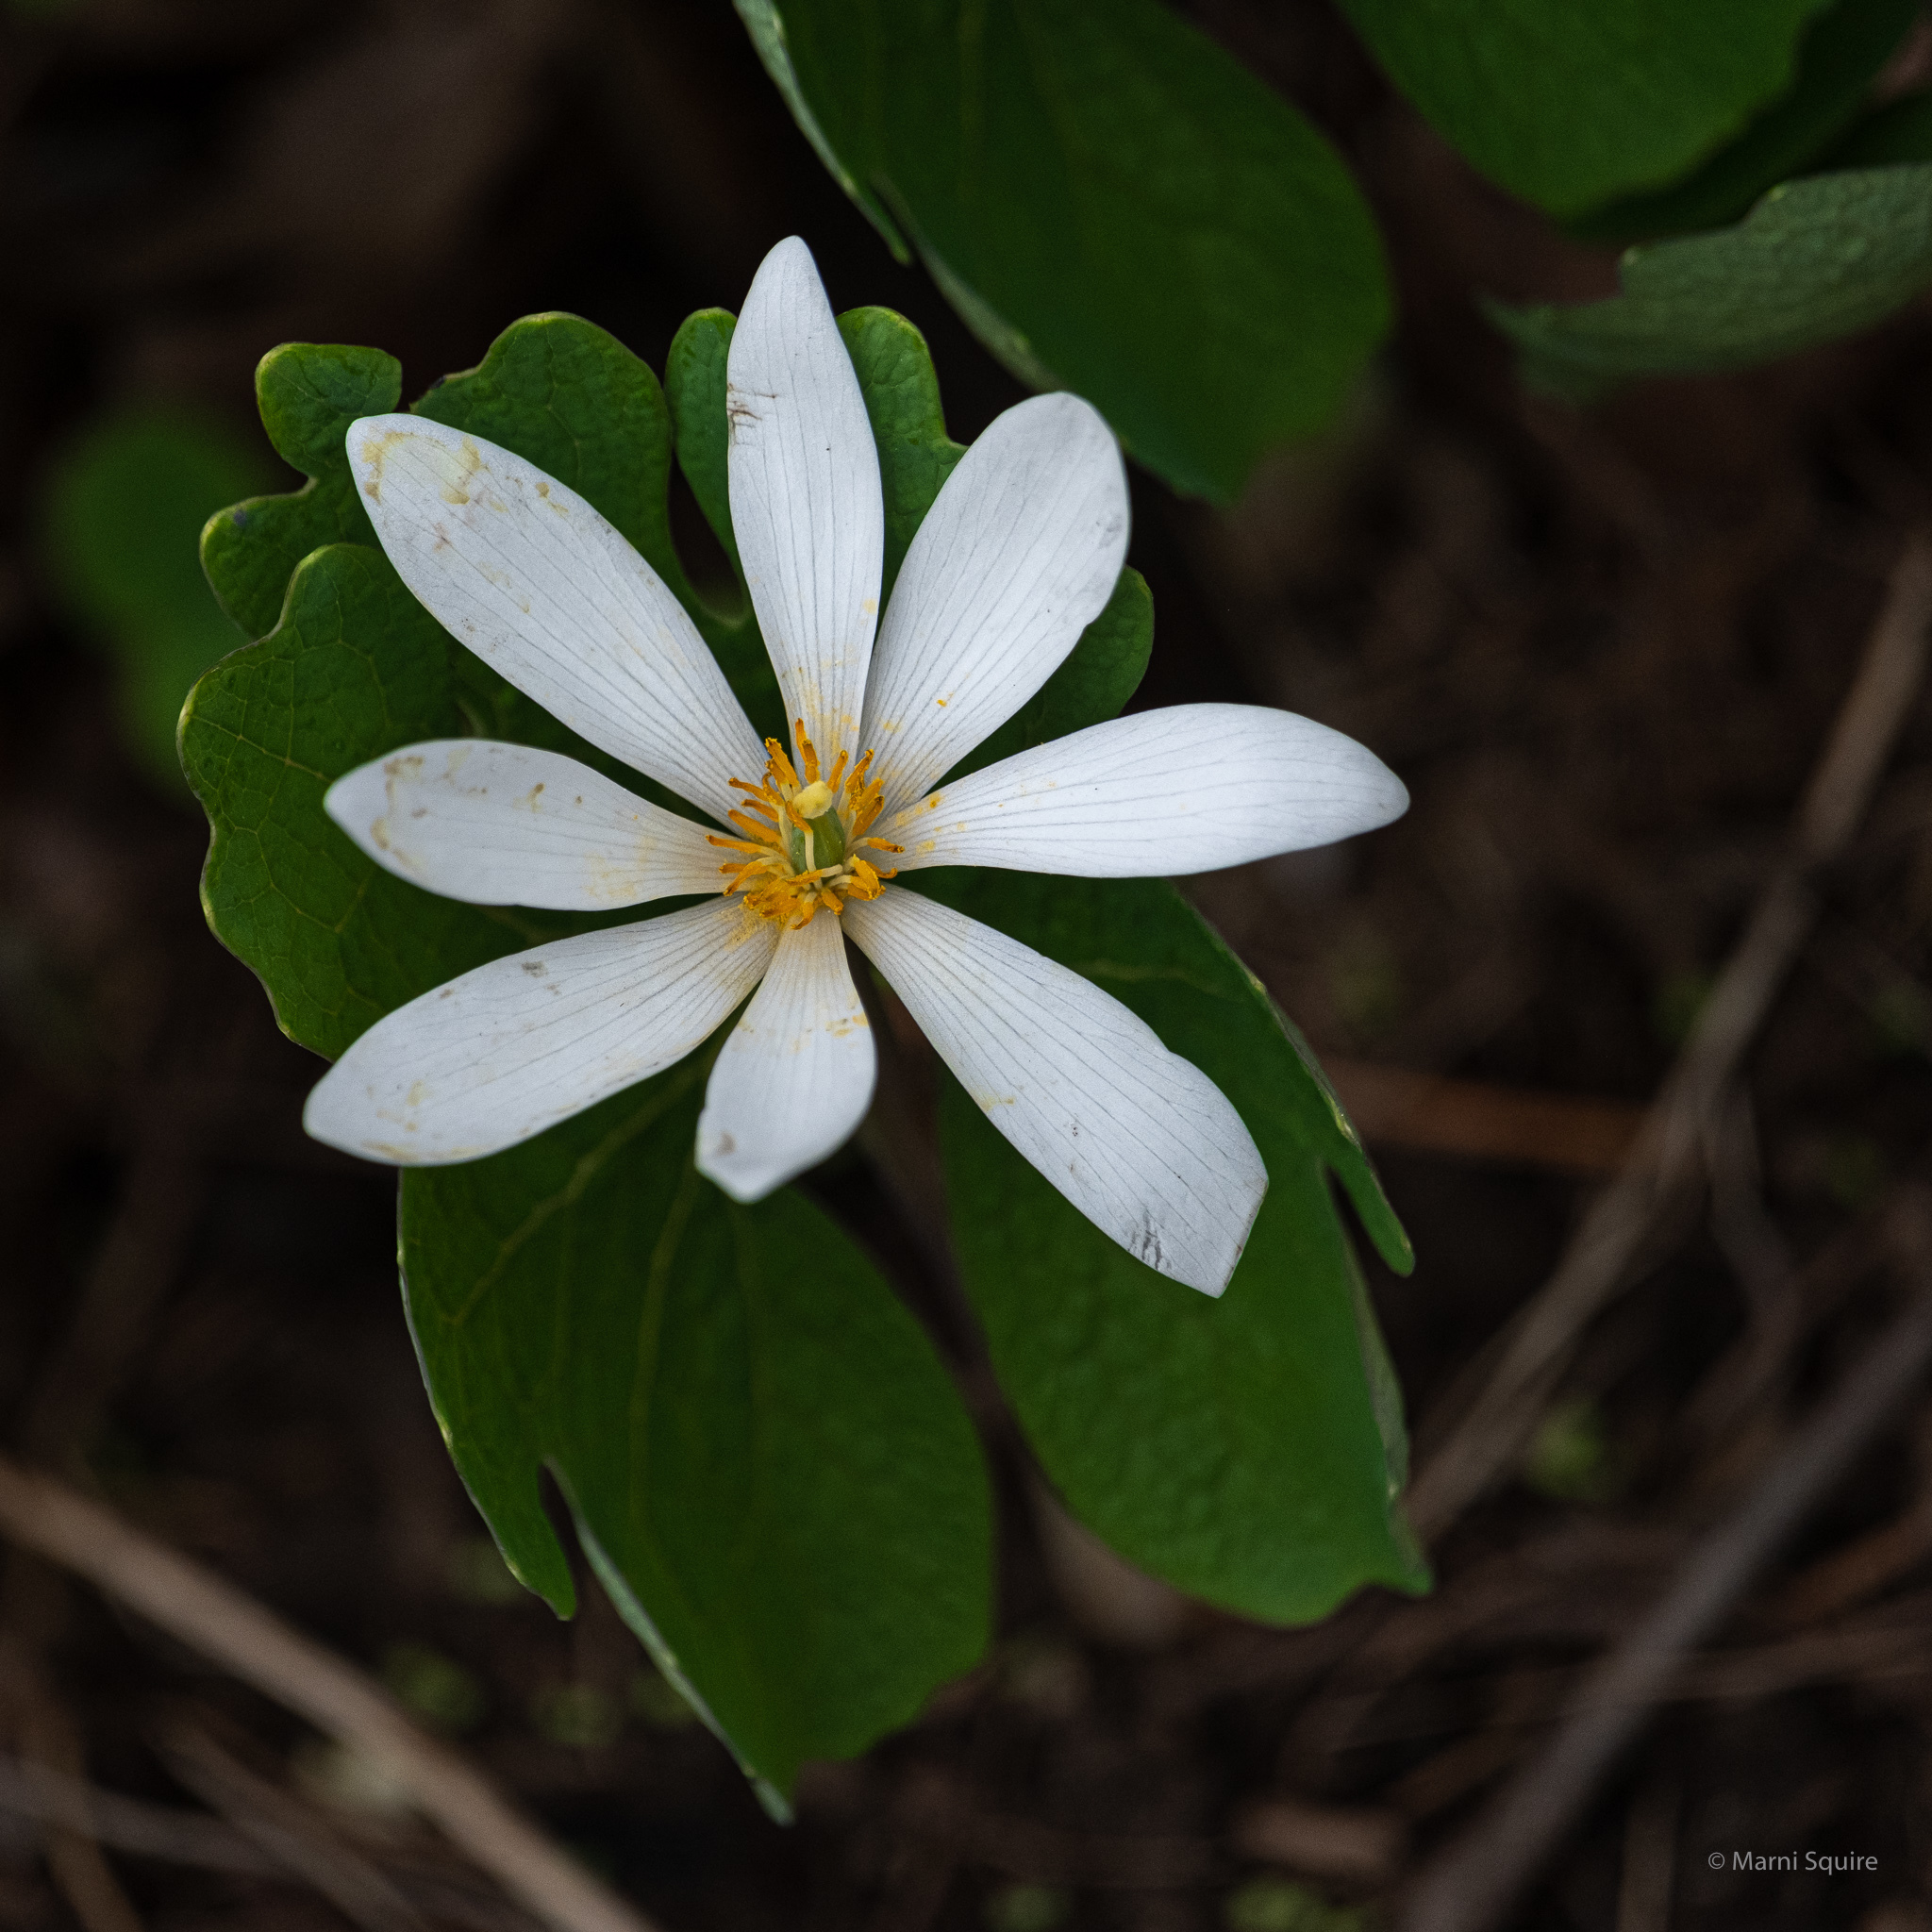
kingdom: Plantae
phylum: Tracheophyta
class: Magnoliopsida
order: Ranunculales
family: Papaveraceae
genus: Sanguinaria
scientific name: Sanguinaria canadensis
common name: Bloodroot
